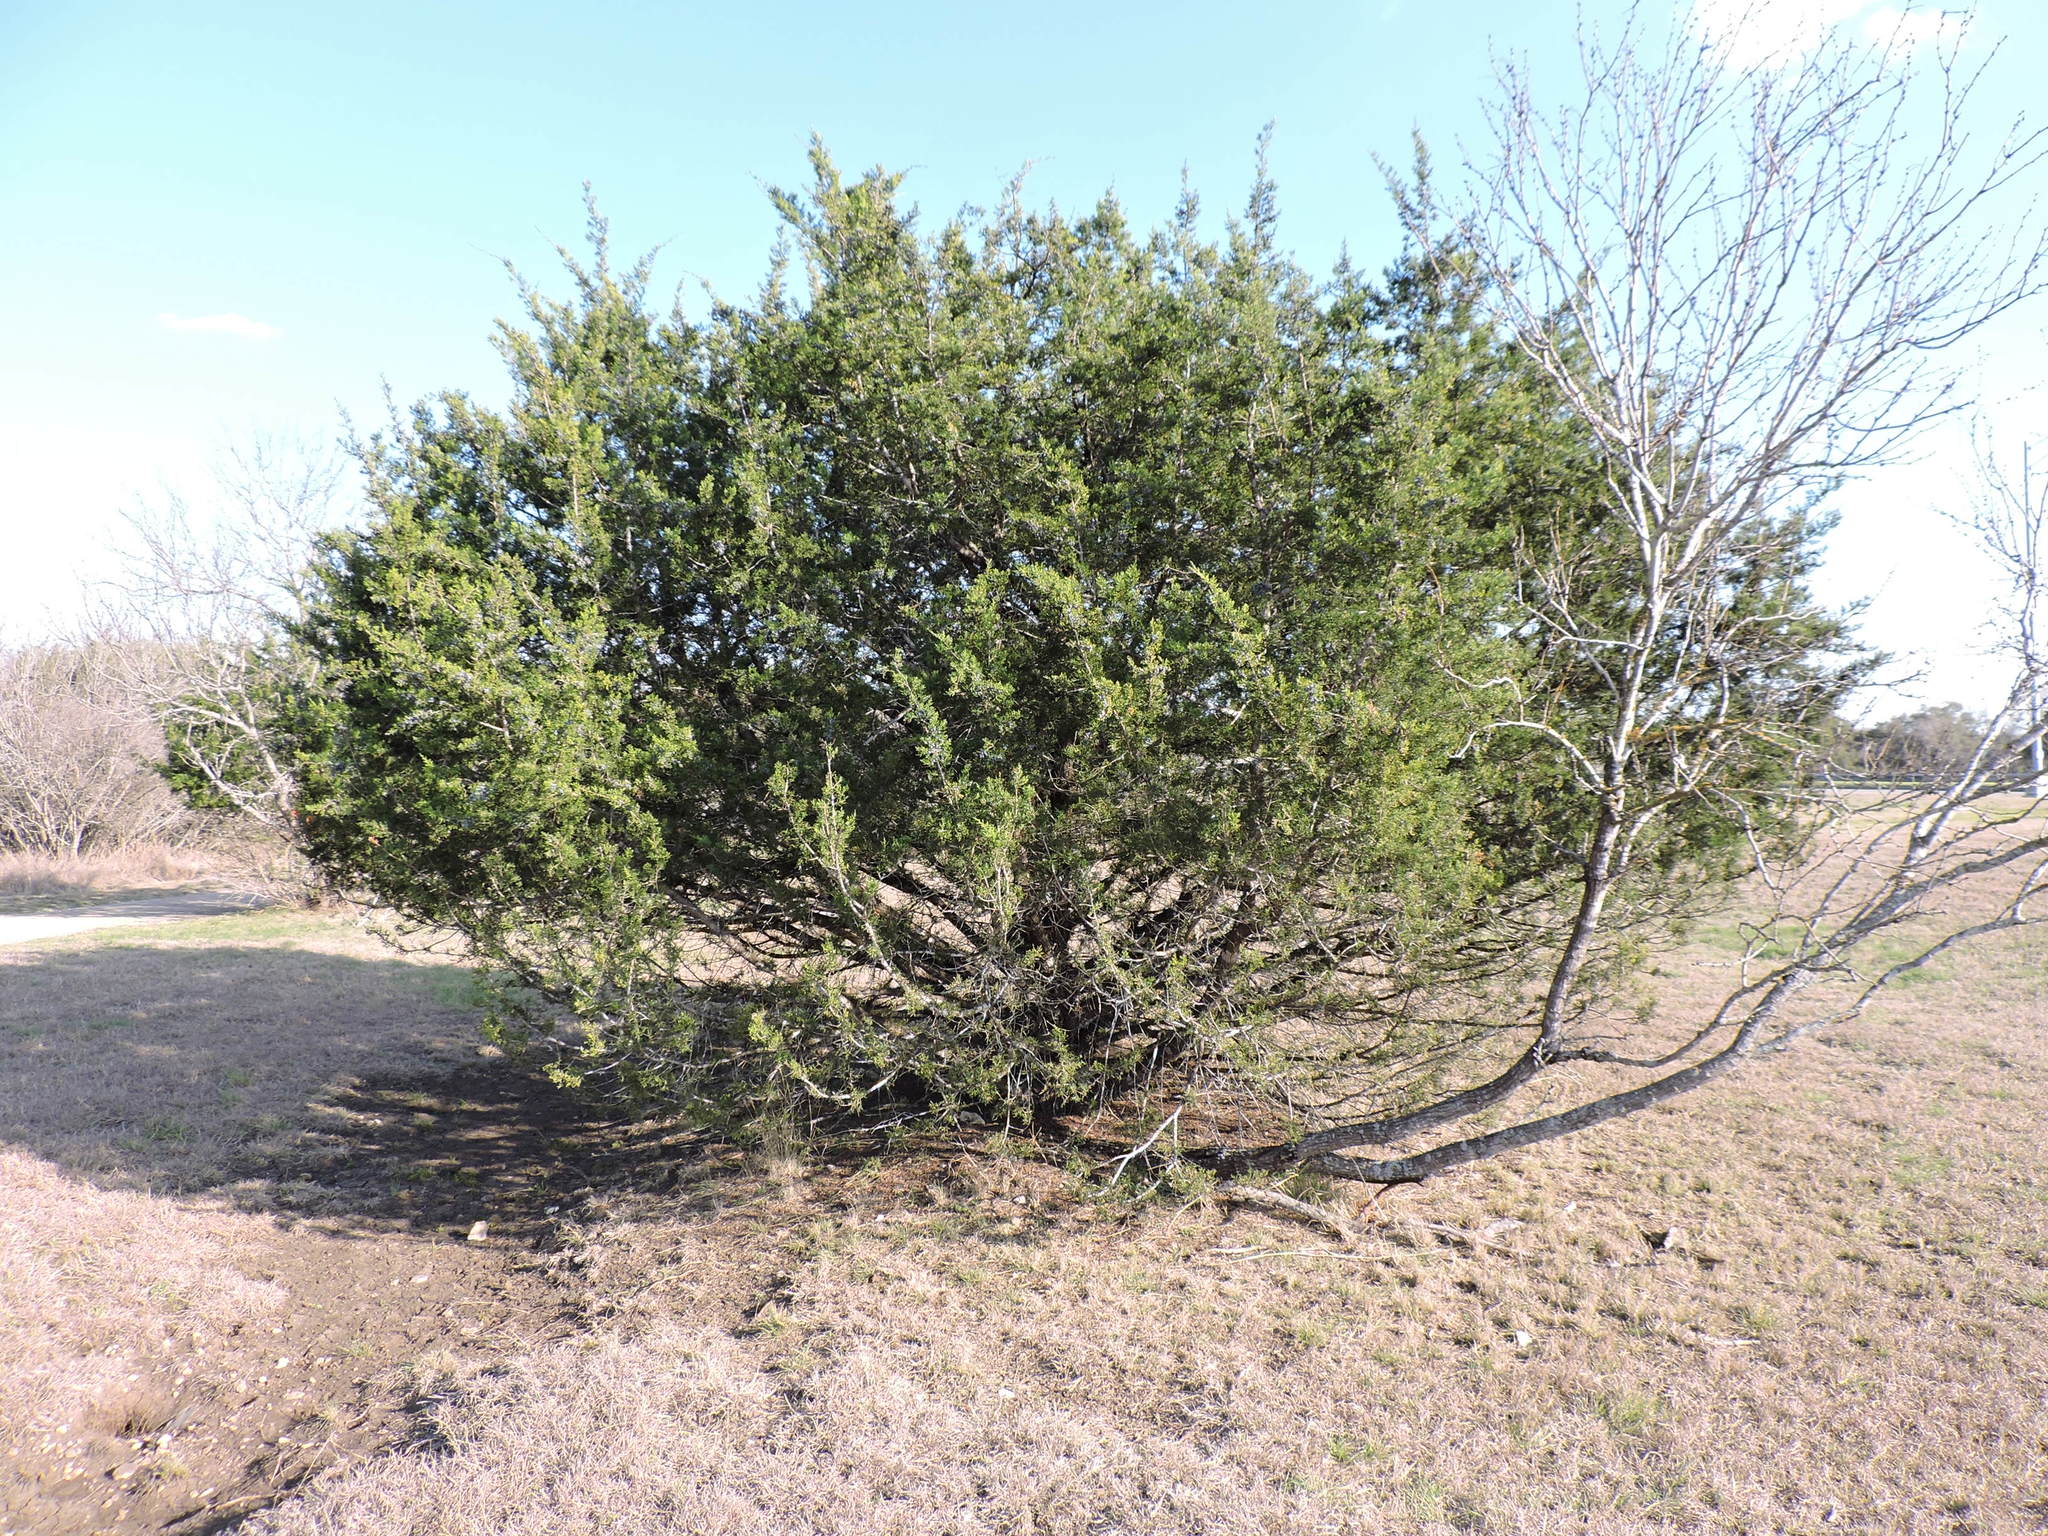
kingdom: Plantae
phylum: Tracheophyta
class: Pinopsida
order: Pinales
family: Cupressaceae
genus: Juniperus
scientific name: Juniperus ashei
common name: Mexican juniper
